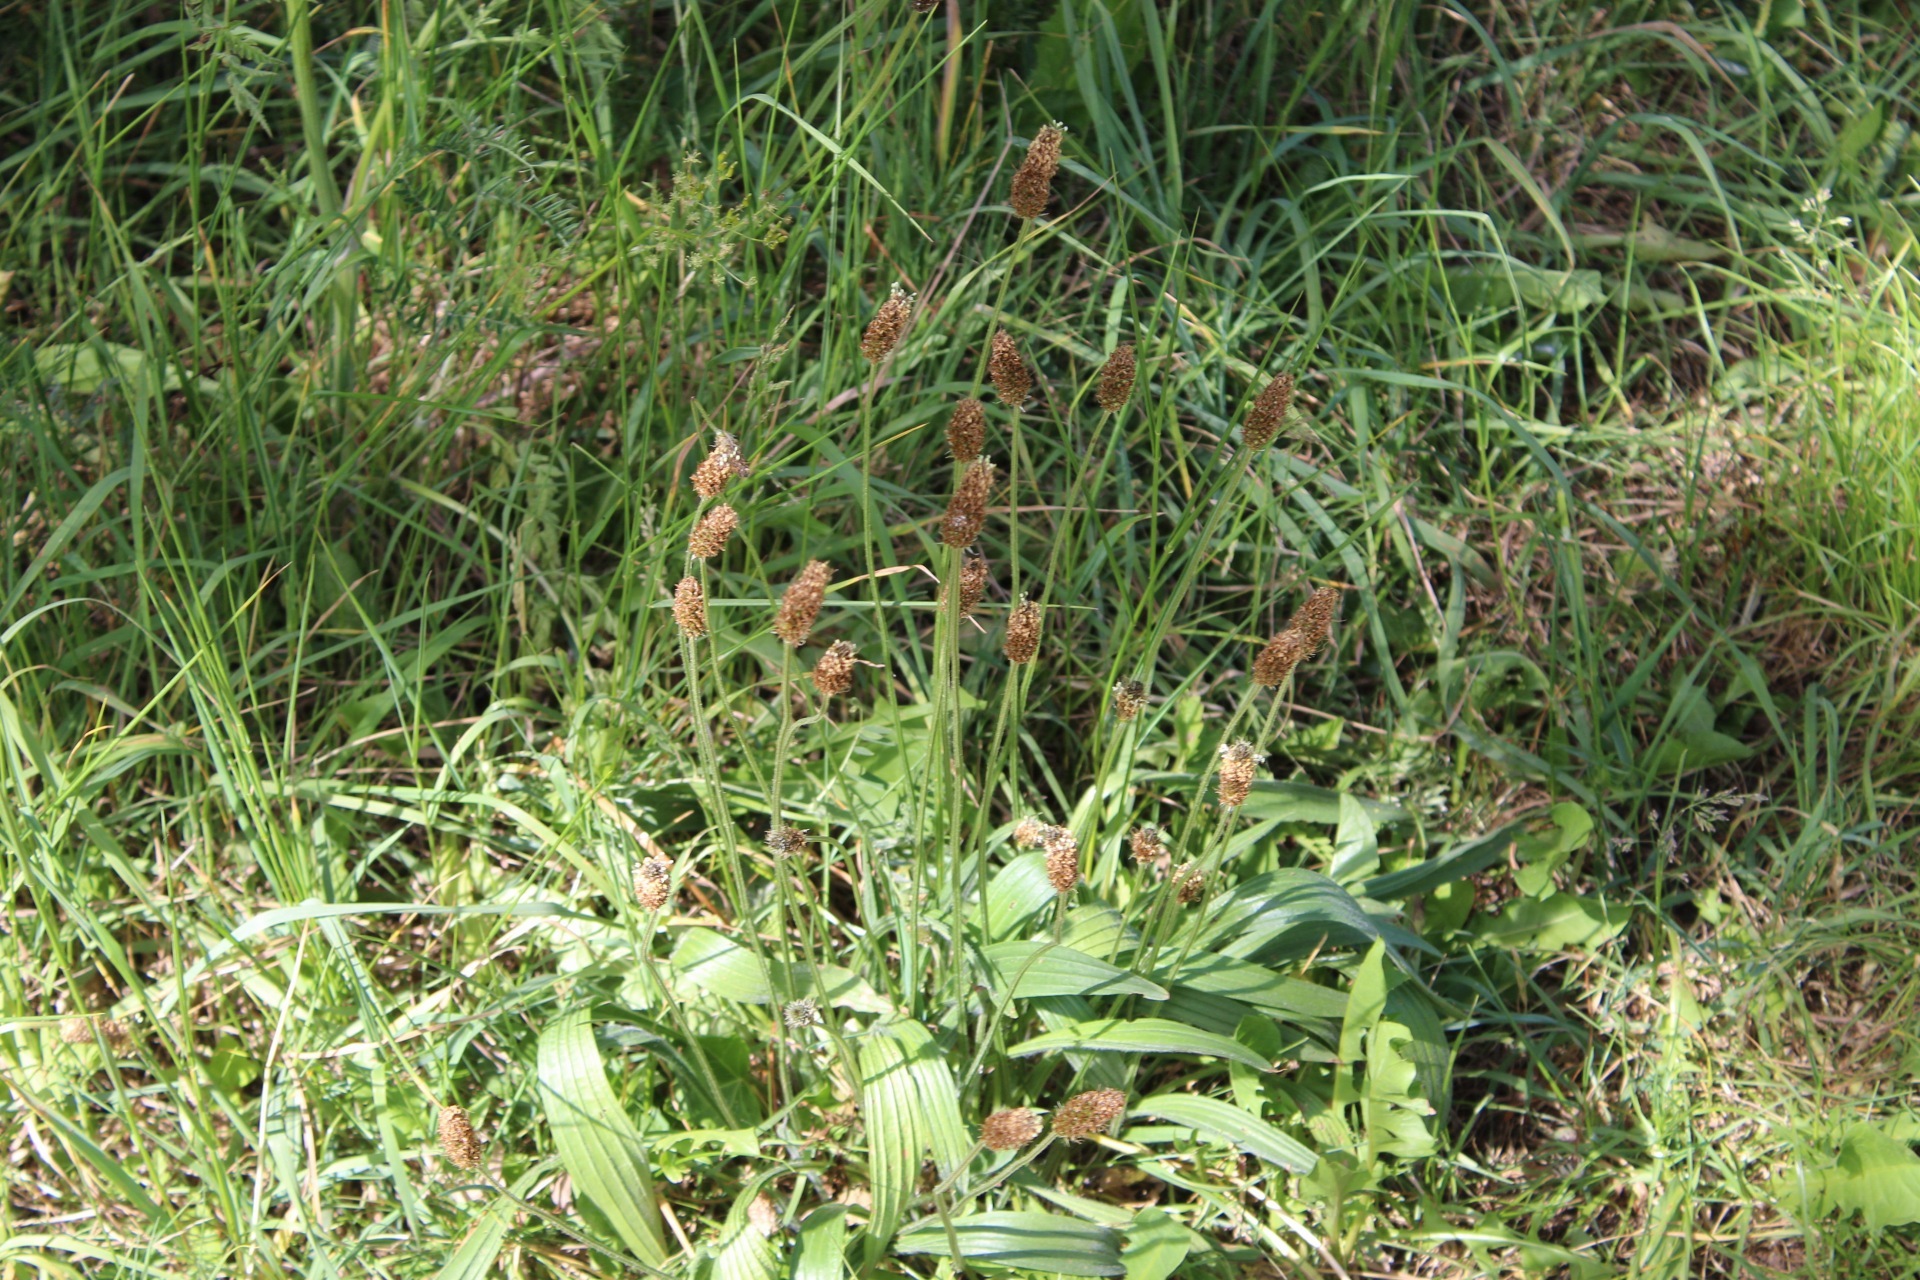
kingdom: Plantae
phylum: Tracheophyta
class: Magnoliopsida
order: Lamiales
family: Plantaginaceae
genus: Plantago
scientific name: Plantago lanceolata
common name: Ribwort plantain
